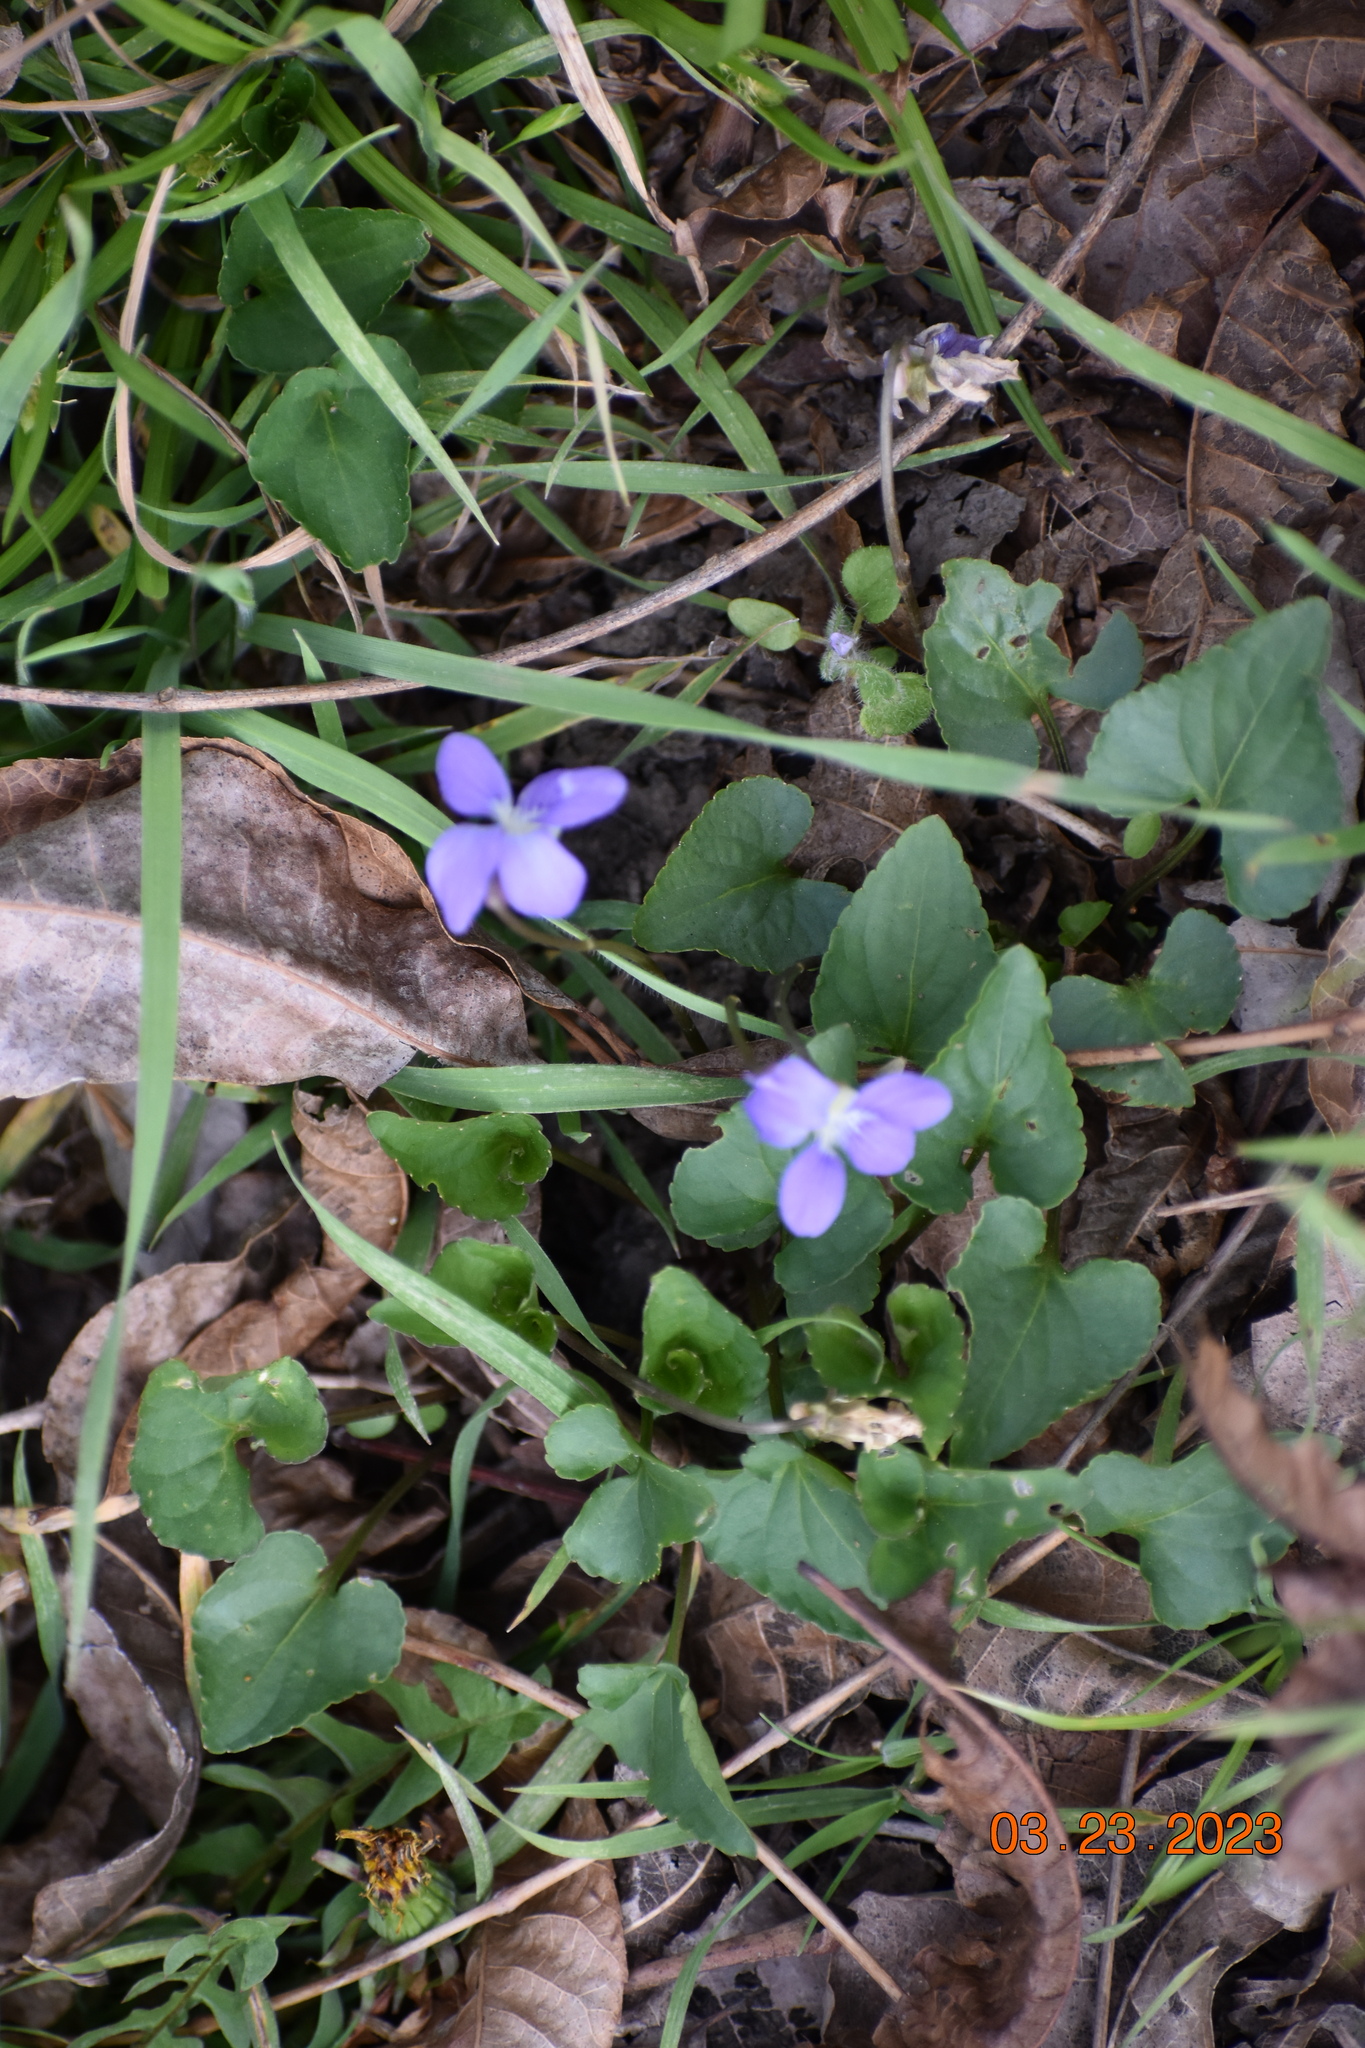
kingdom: Plantae
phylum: Tracheophyta
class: Magnoliopsida
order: Malpighiales
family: Violaceae
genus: Viola
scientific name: Viola missouriensis
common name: Missouri violet
